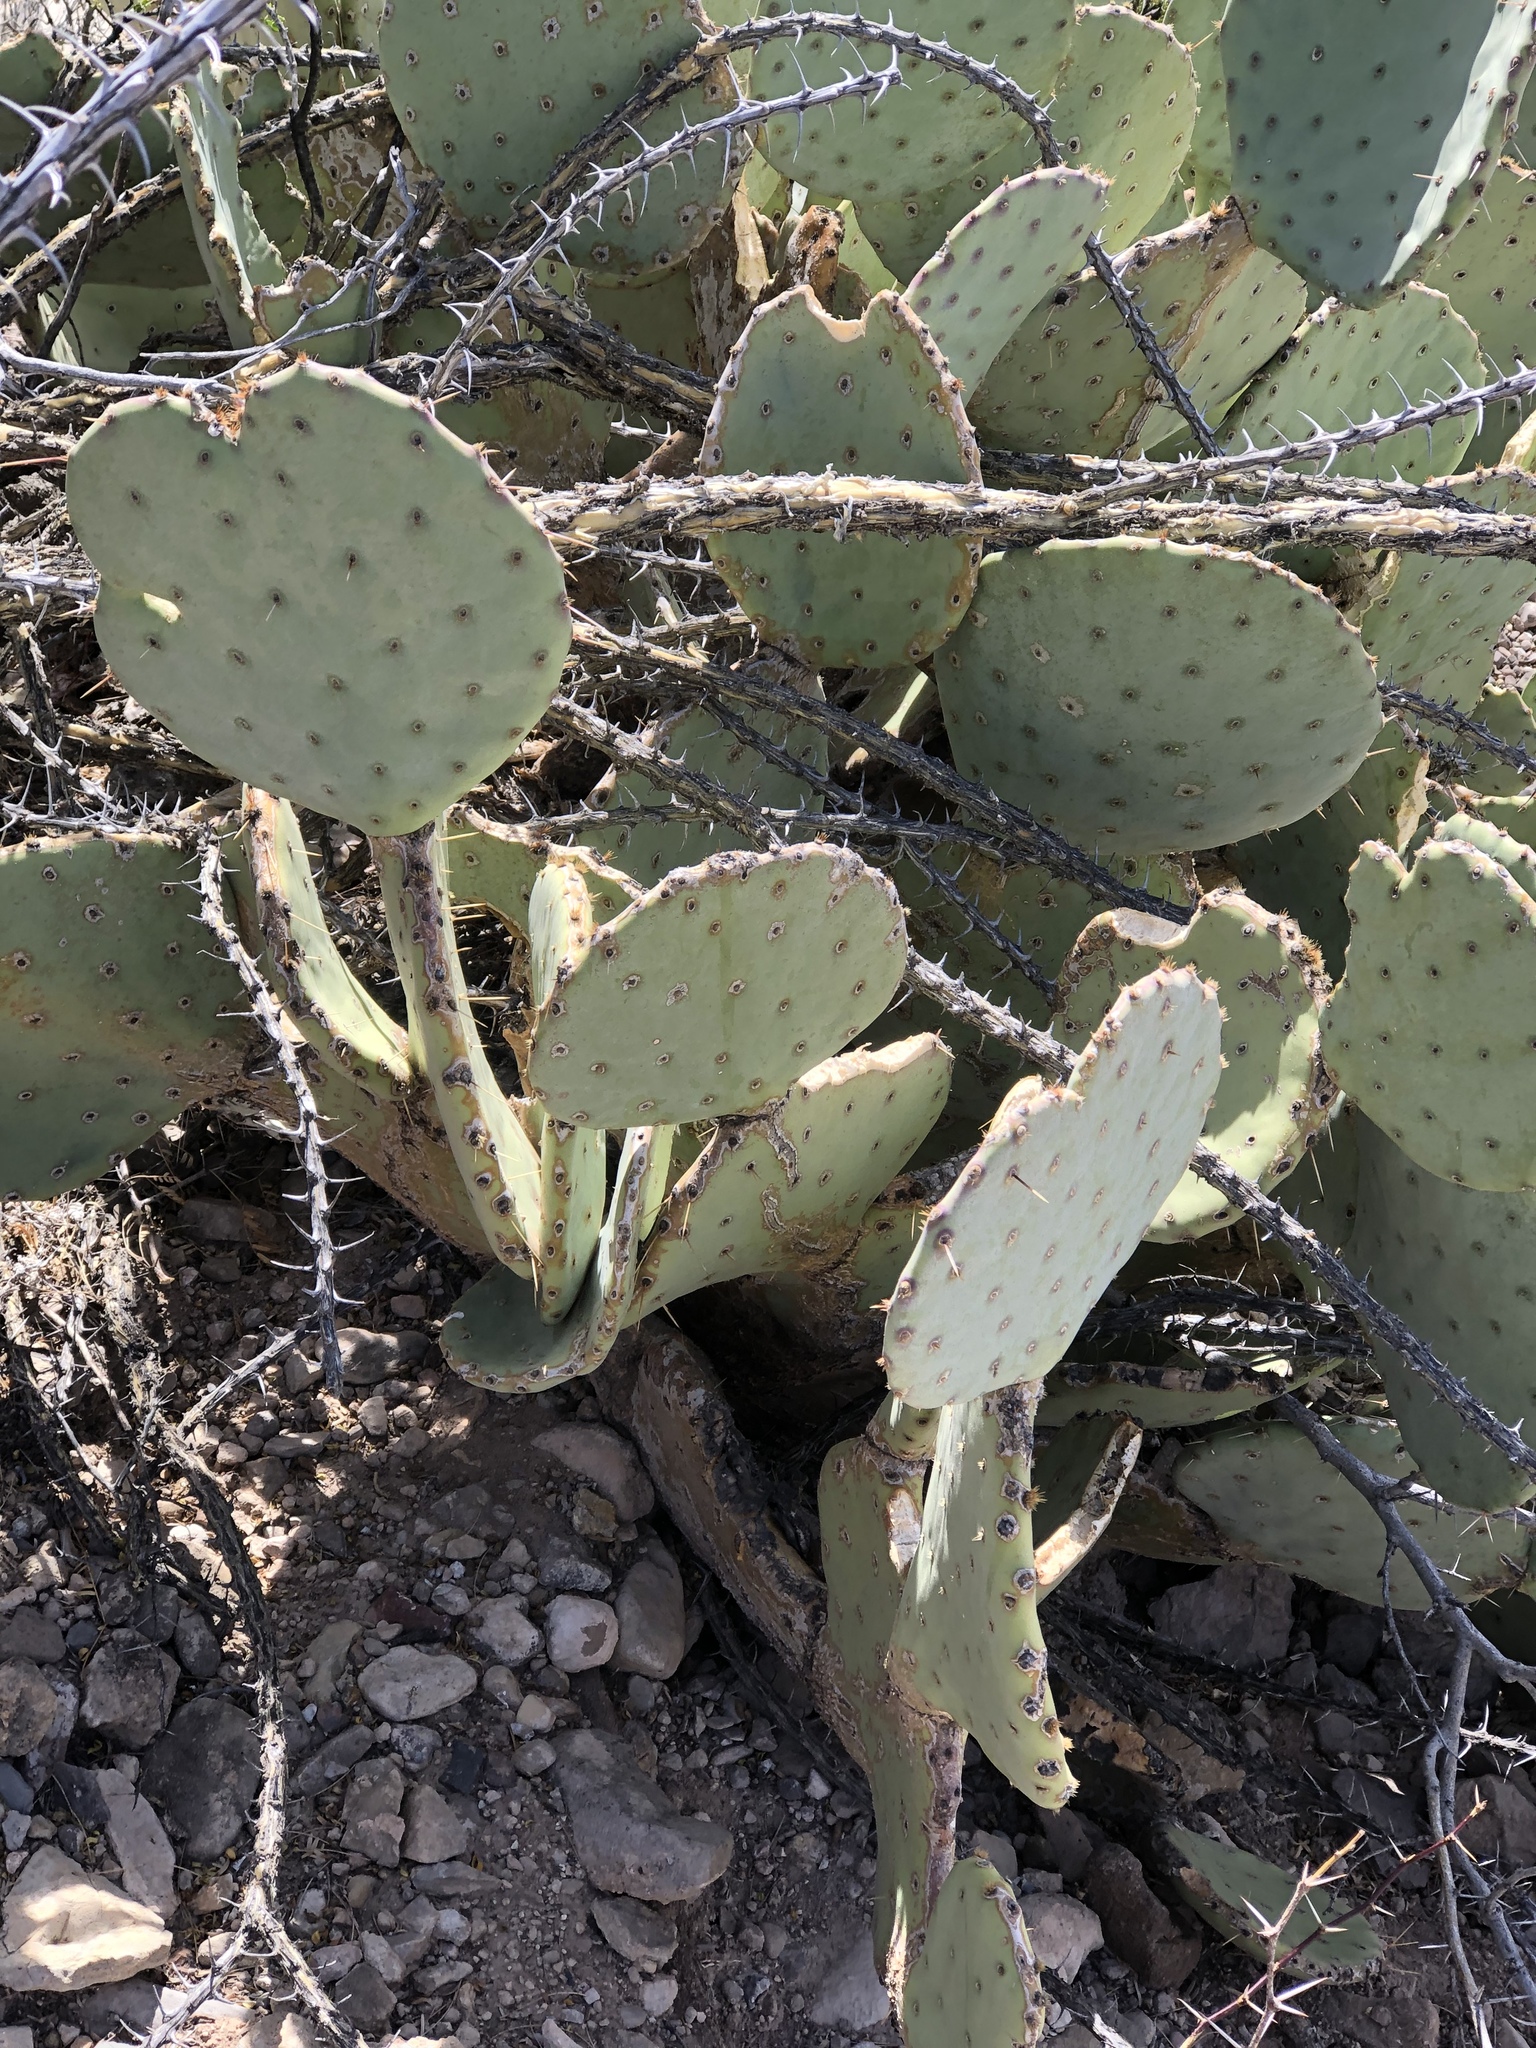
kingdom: Plantae
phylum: Tracheophyta
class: Magnoliopsida
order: Caryophyllales
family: Cactaceae
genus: Opuntia
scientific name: Opuntia orbiculata
